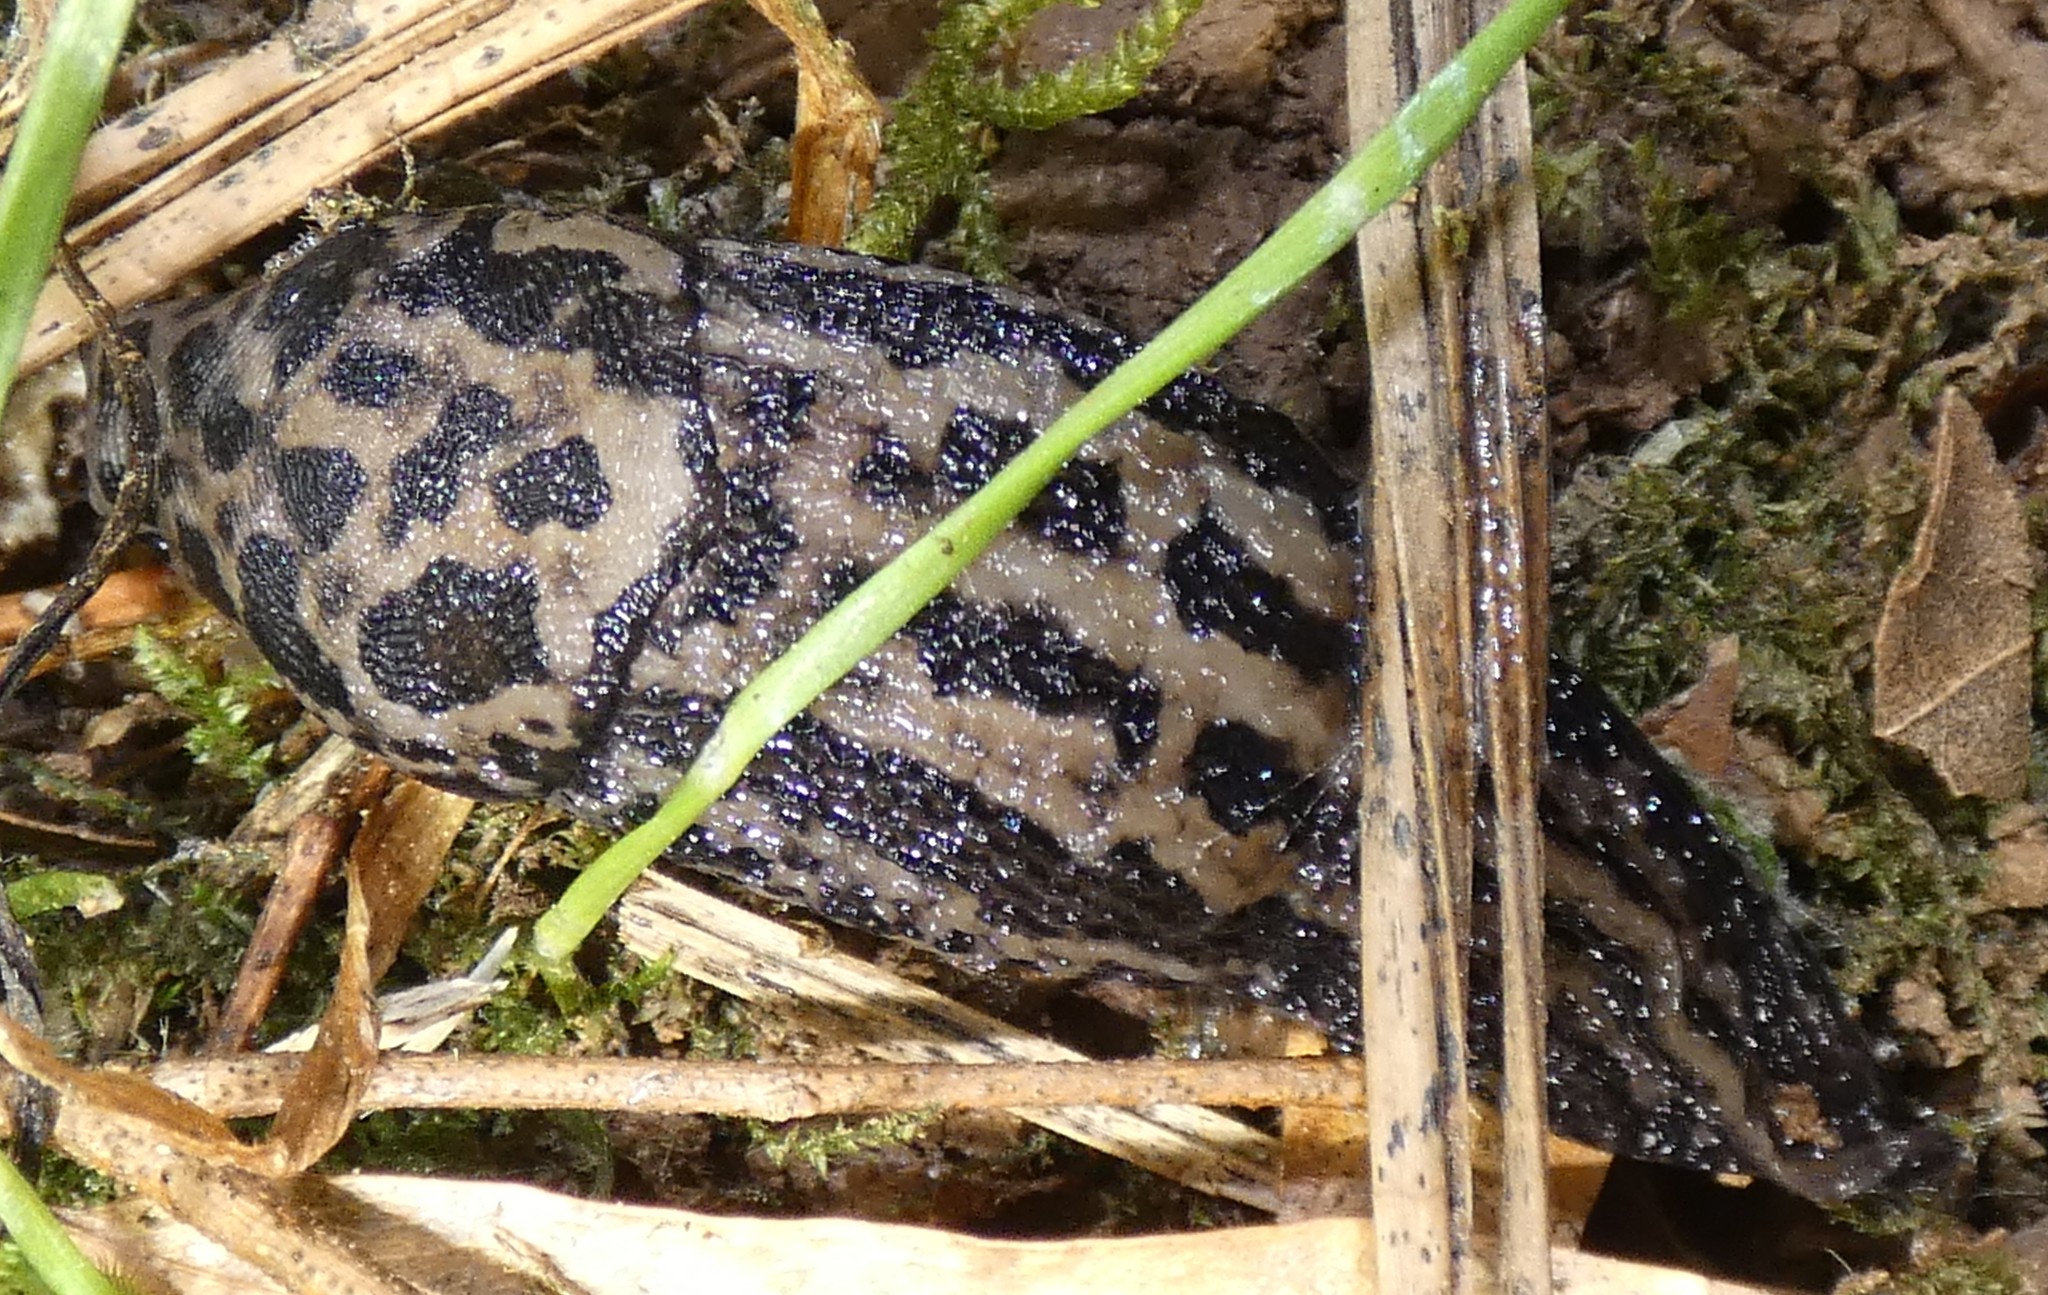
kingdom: Animalia
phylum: Mollusca
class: Gastropoda
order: Stylommatophora
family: Limacidae
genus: Limax
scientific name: Limax maximus
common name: Great grey slug
